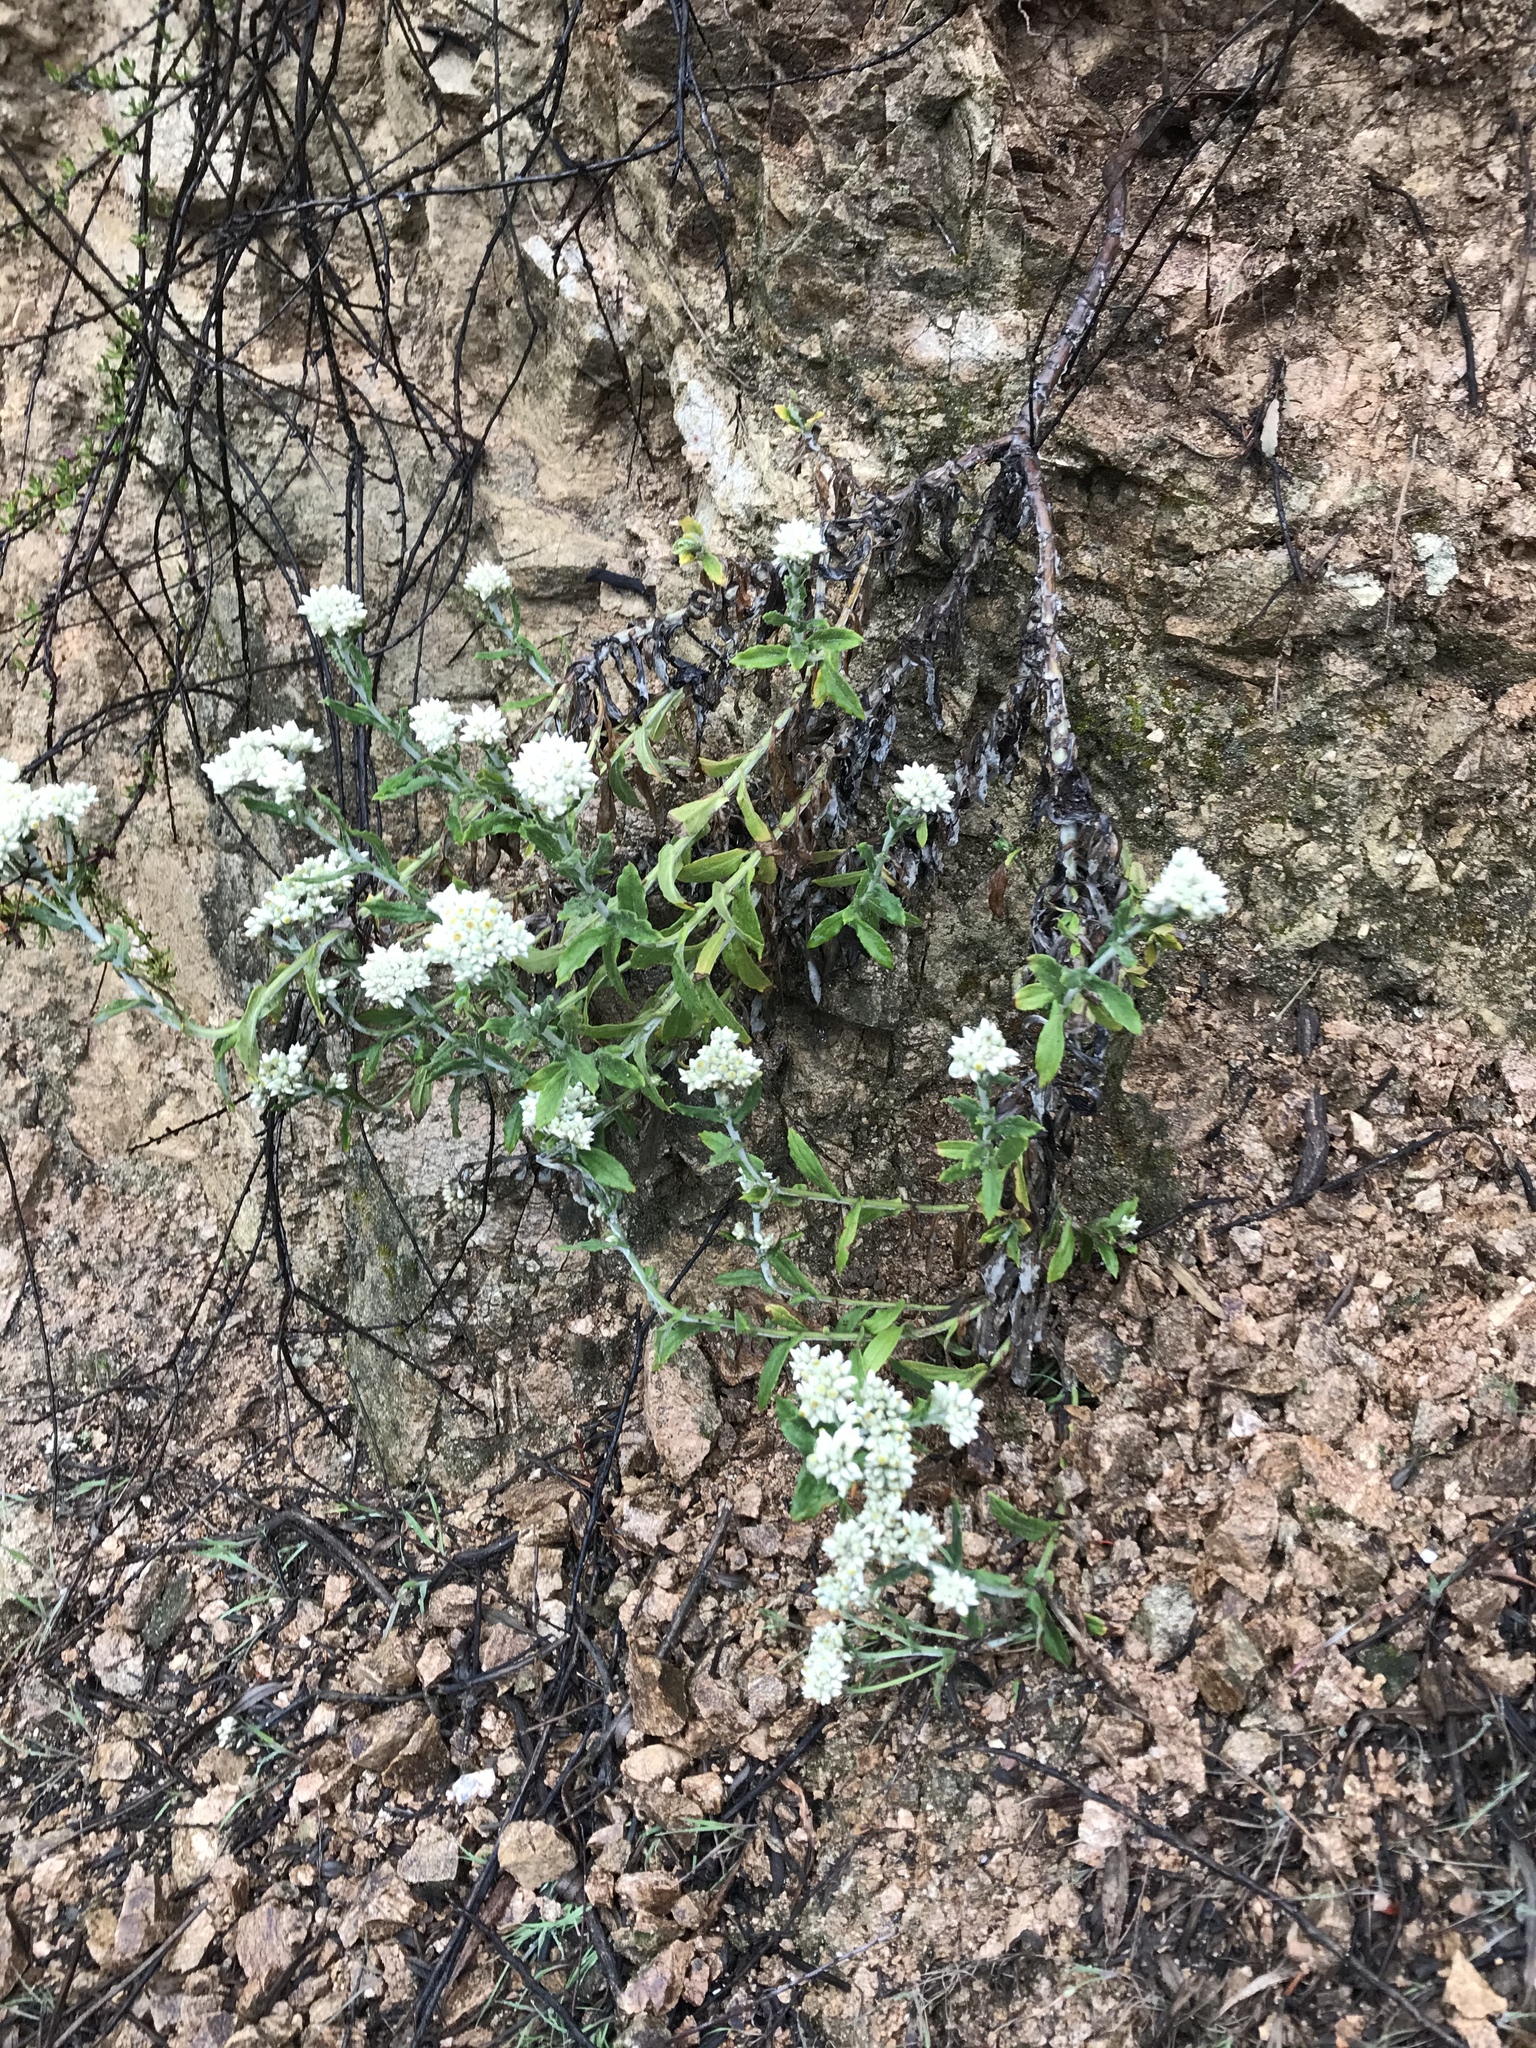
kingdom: Plantae
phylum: Tracheophyta
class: Magnoliopsida
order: Asterales
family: Asteraceae
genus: Pseudognaphalium
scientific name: Pseudognaphalium biolettii
